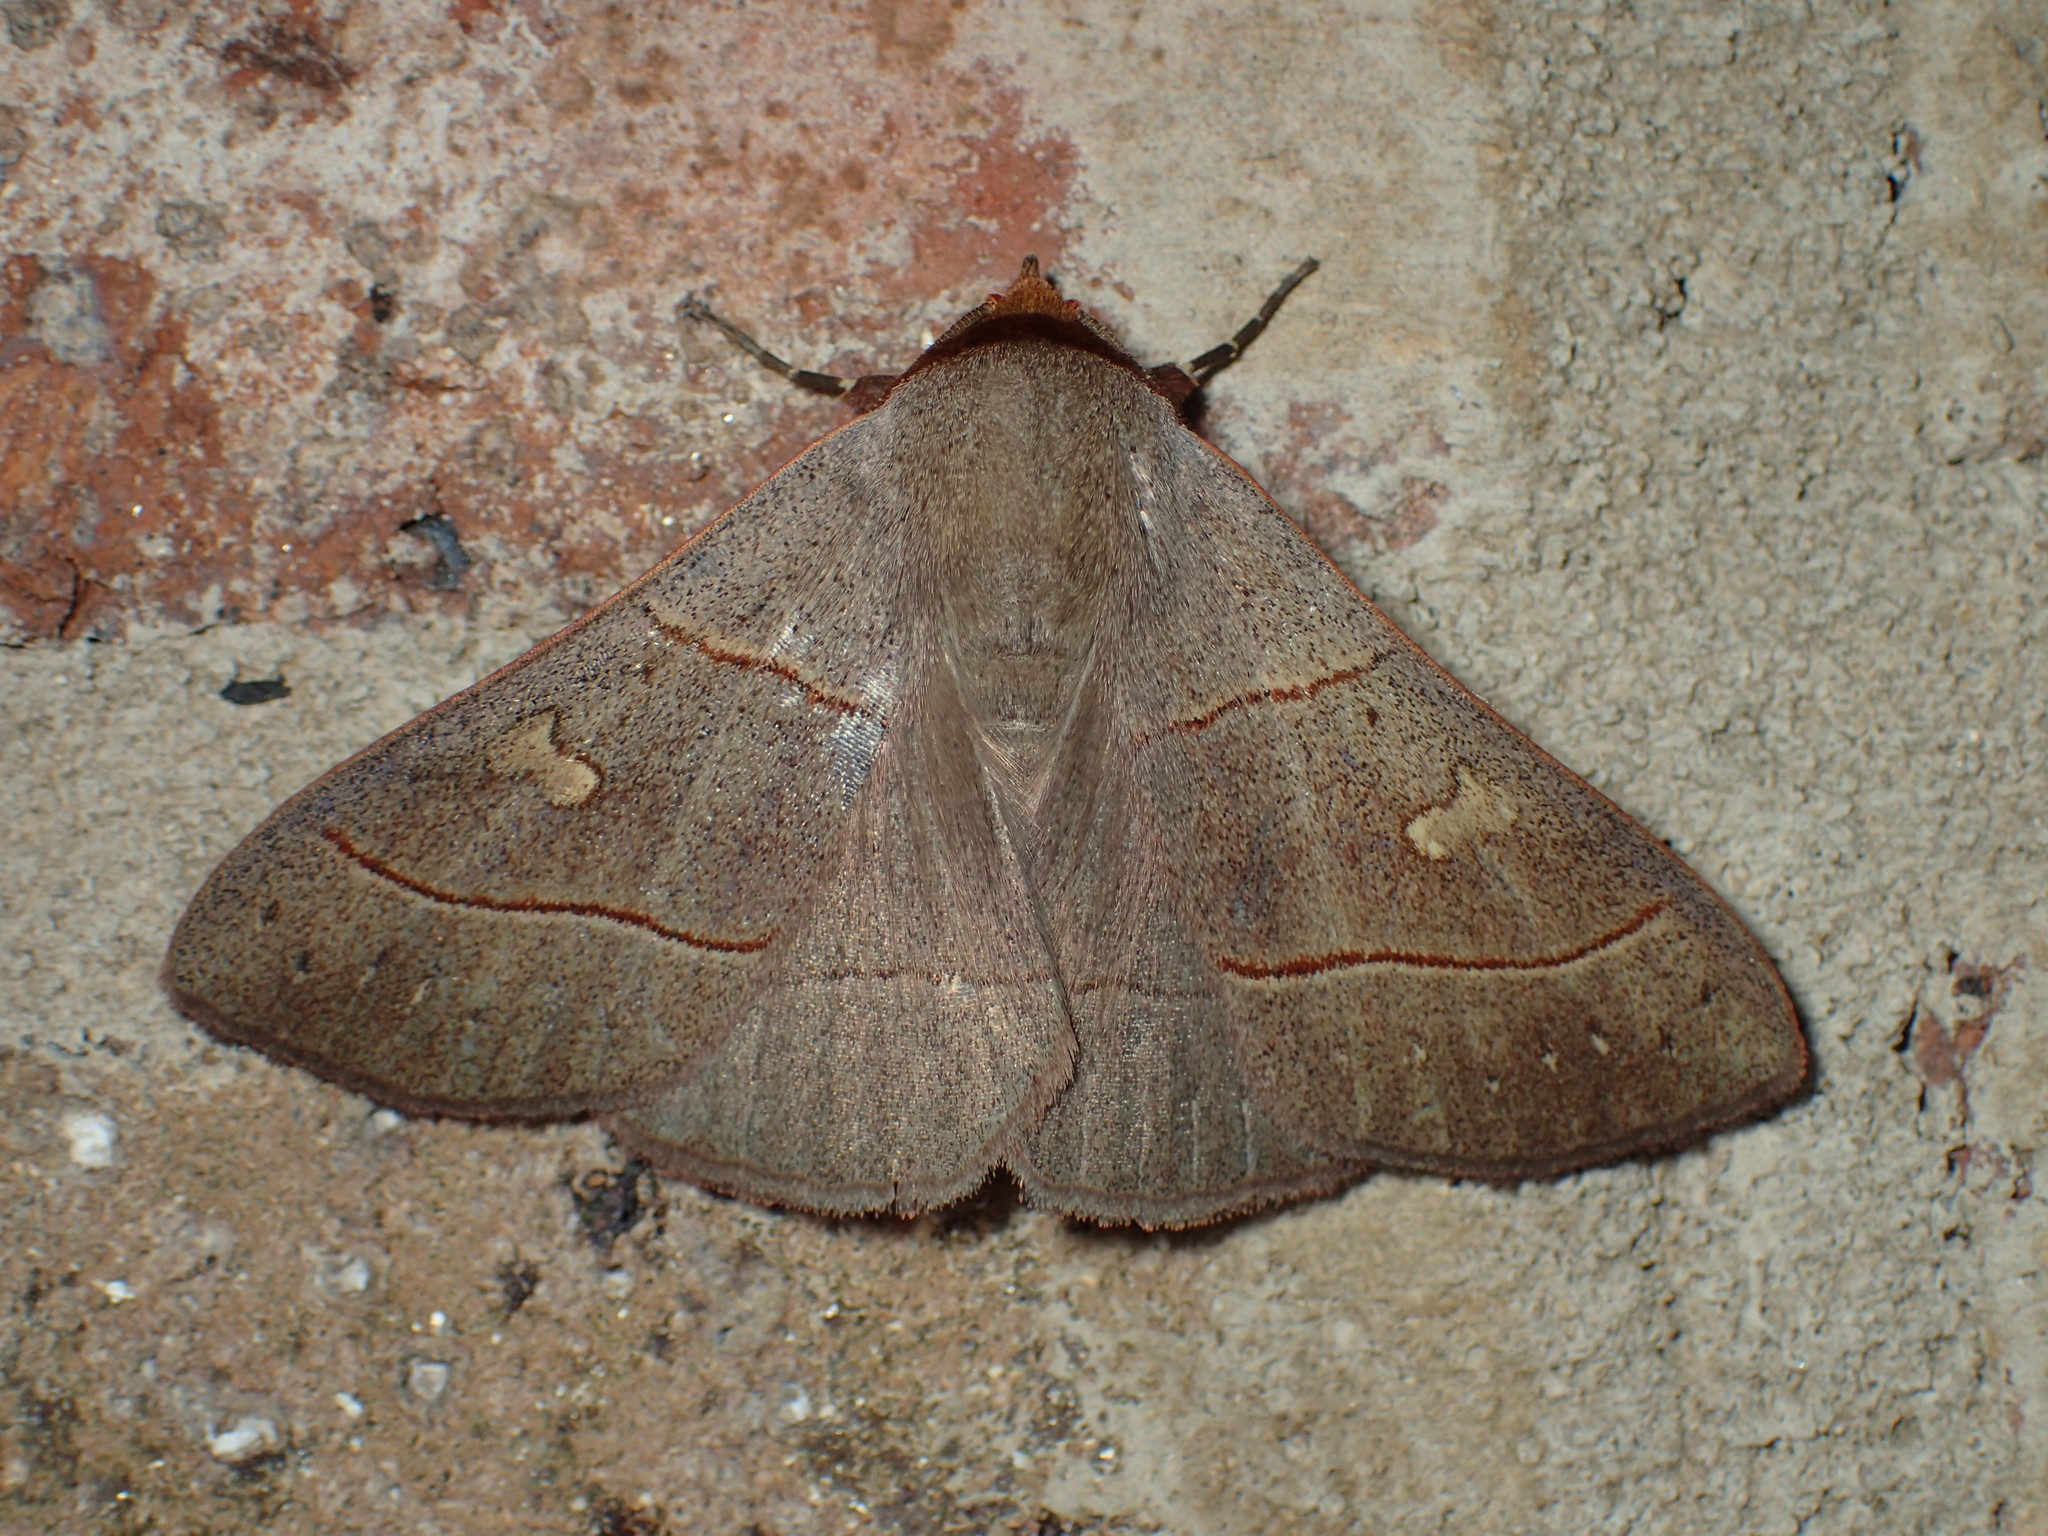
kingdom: Animalia
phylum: Arthropoda
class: Insecta
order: Lepidoptera
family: Erebidae
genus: Panopoda
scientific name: Panopoda rufimargo
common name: Red-lined panopoda moth
